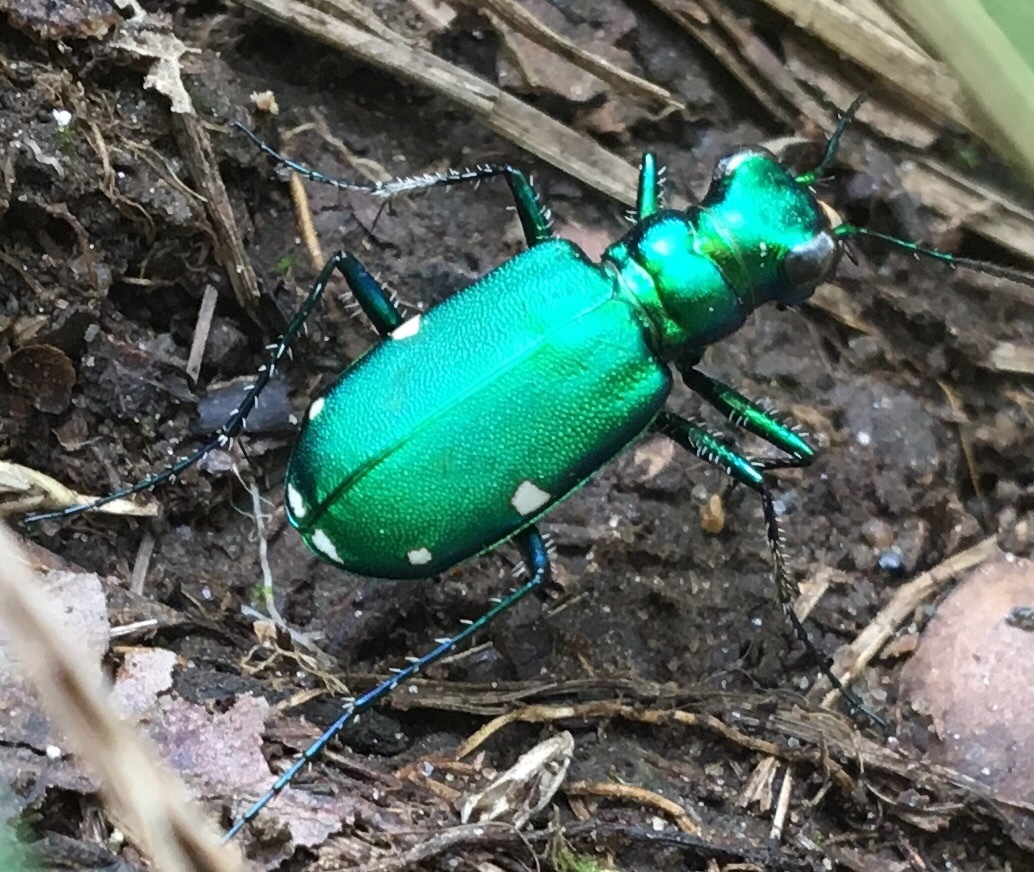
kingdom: Animalia
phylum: Arthropoda
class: Insecta
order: Coleoptera
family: Carabidae
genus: Cicindela
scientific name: Cicindela sexguttata
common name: Six-spotted tiger beetle
